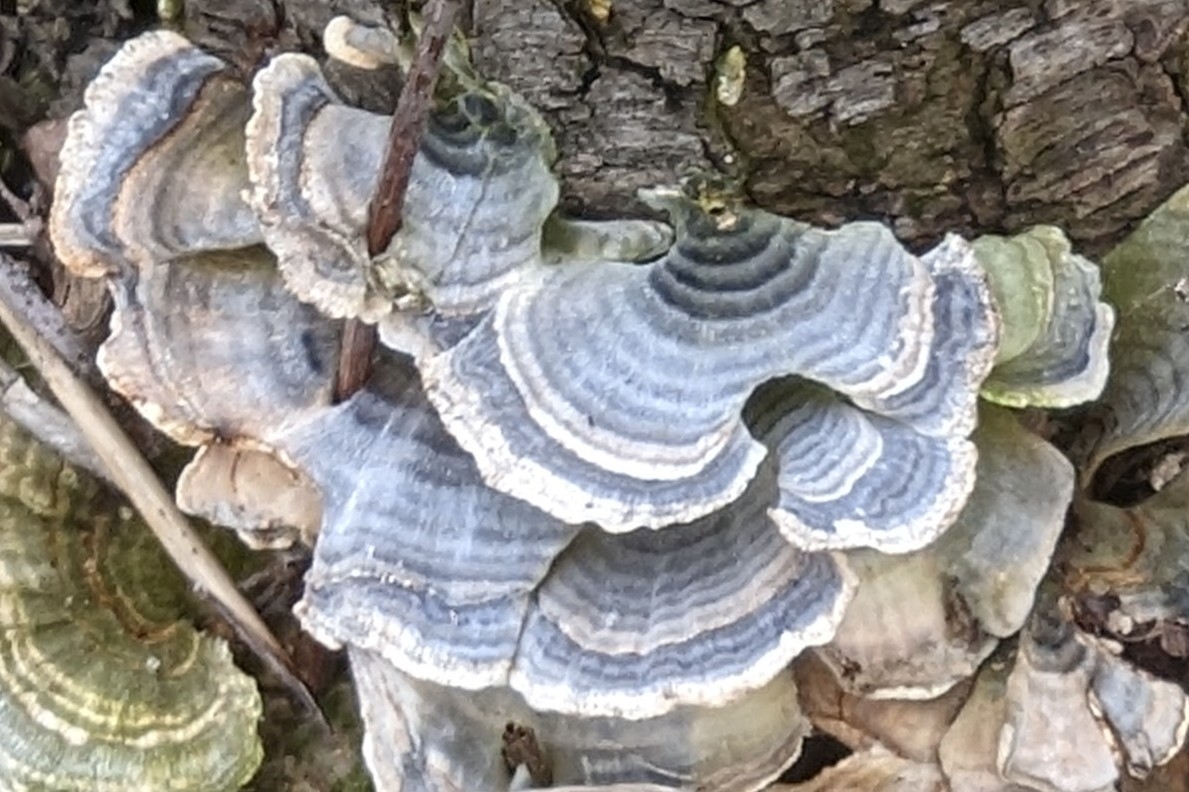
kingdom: Fungi
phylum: Basidiomycota
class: Agaricomycetes
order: Polyporales
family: Polyporaceae
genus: Trametes
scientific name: Trametes versicolor
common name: Turkeytail
